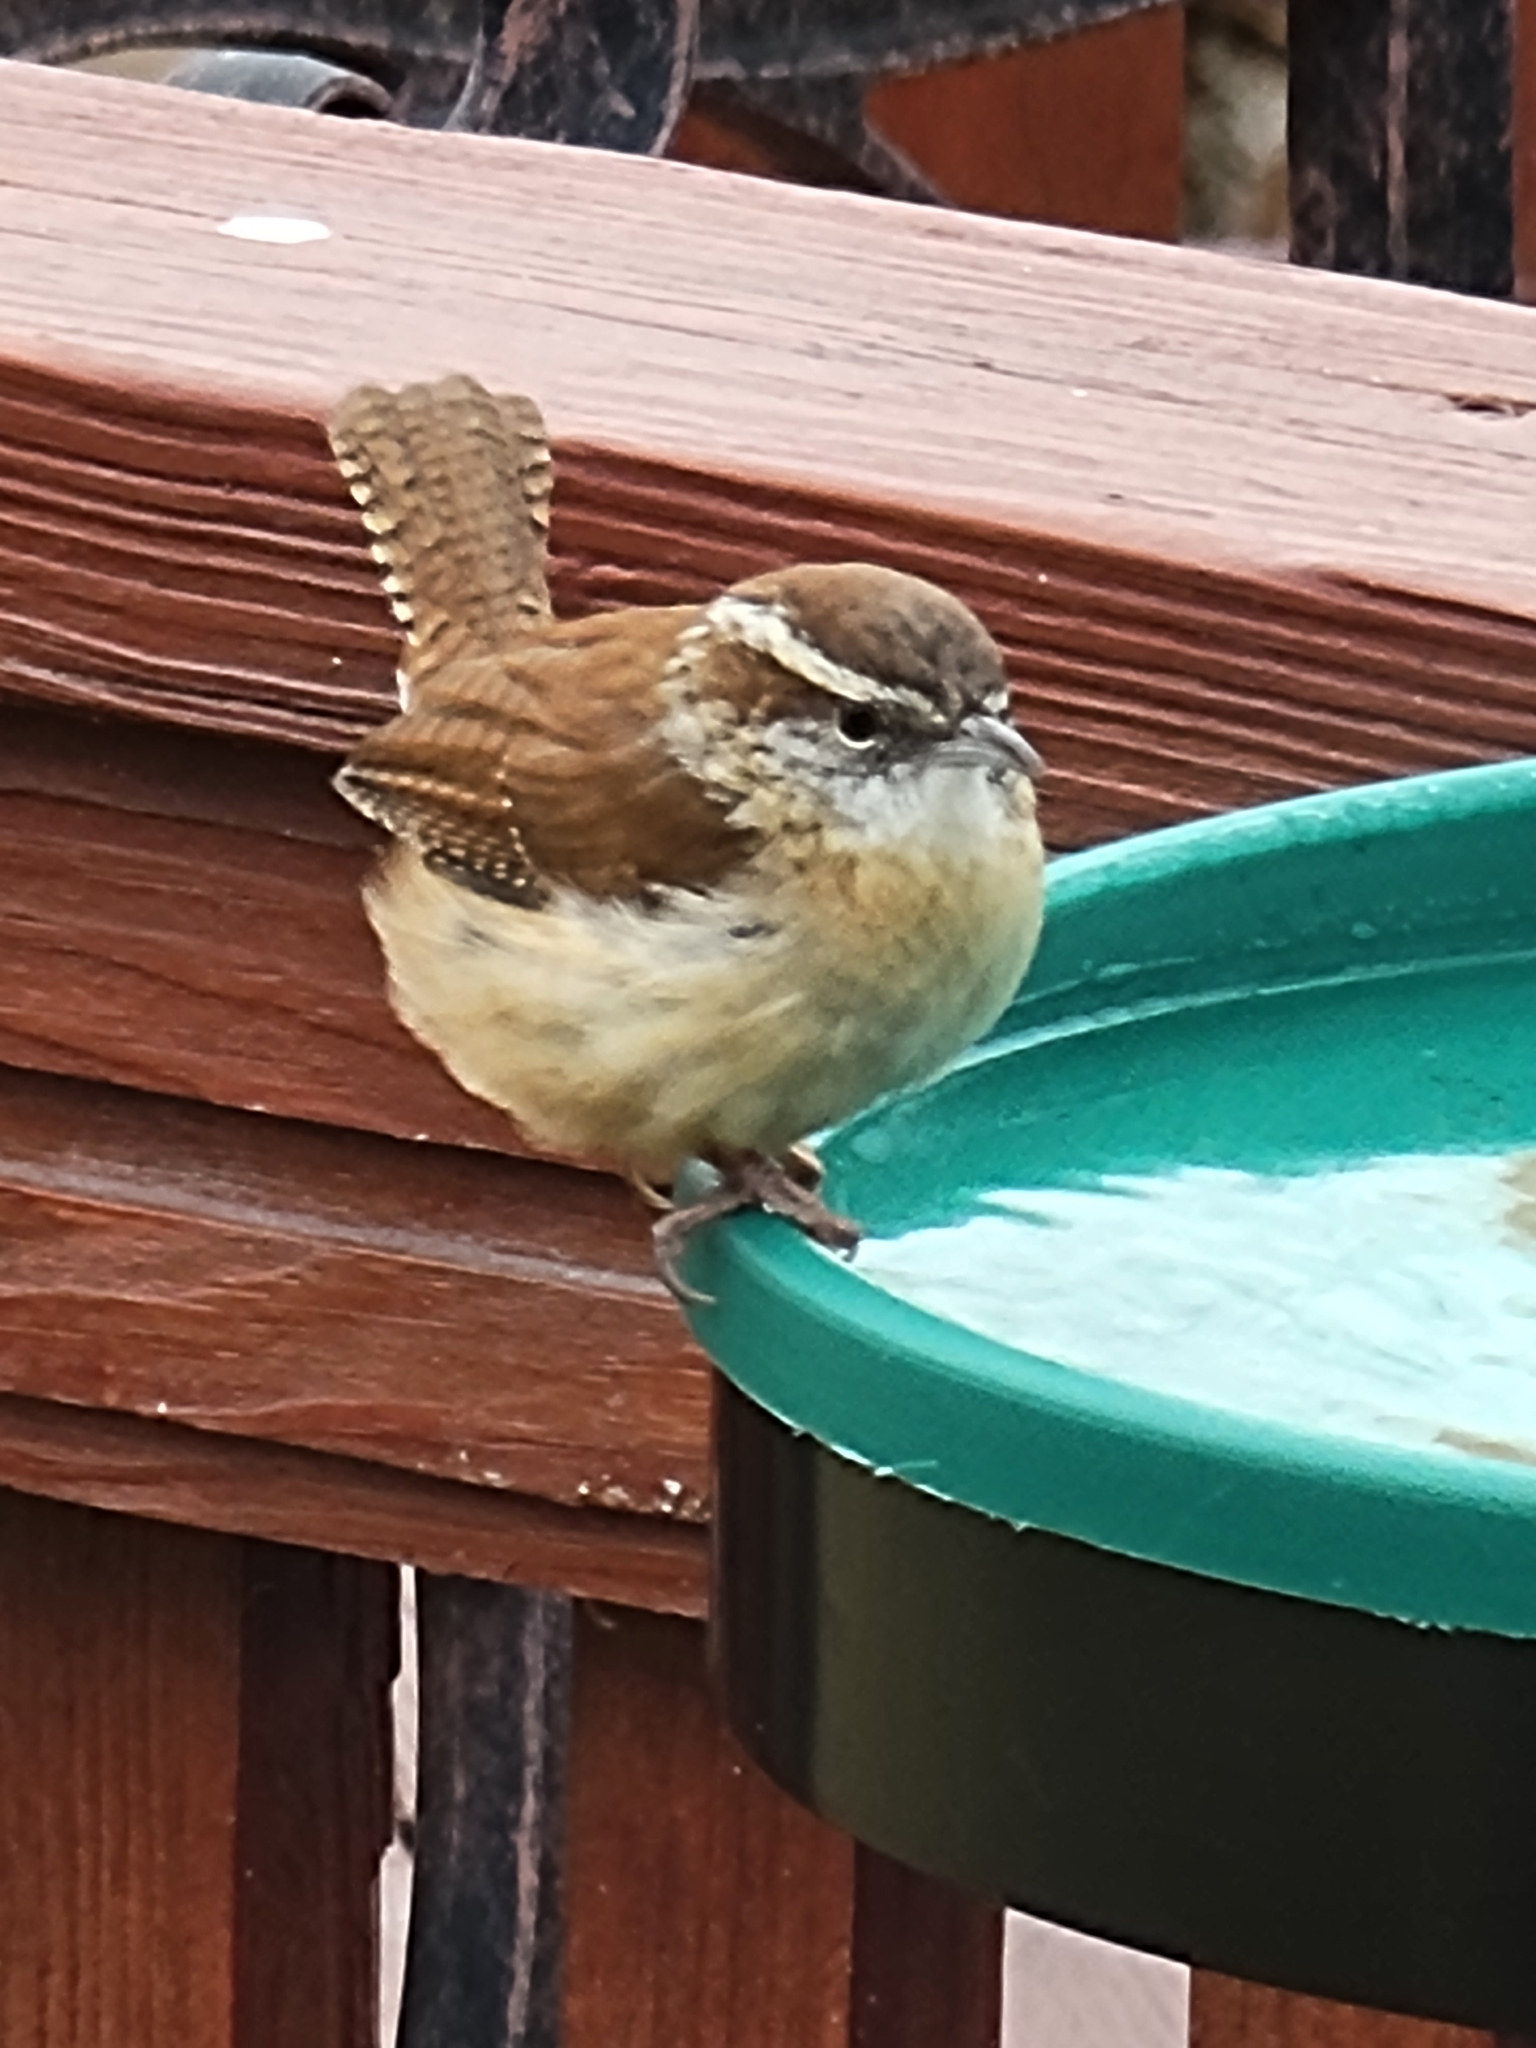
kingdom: Animalia
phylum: Chordata
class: Aves
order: Passeriformes
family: Troglodytidae
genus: Thryothorus
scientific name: Thryothorus ludovicianus
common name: Carolina wren
